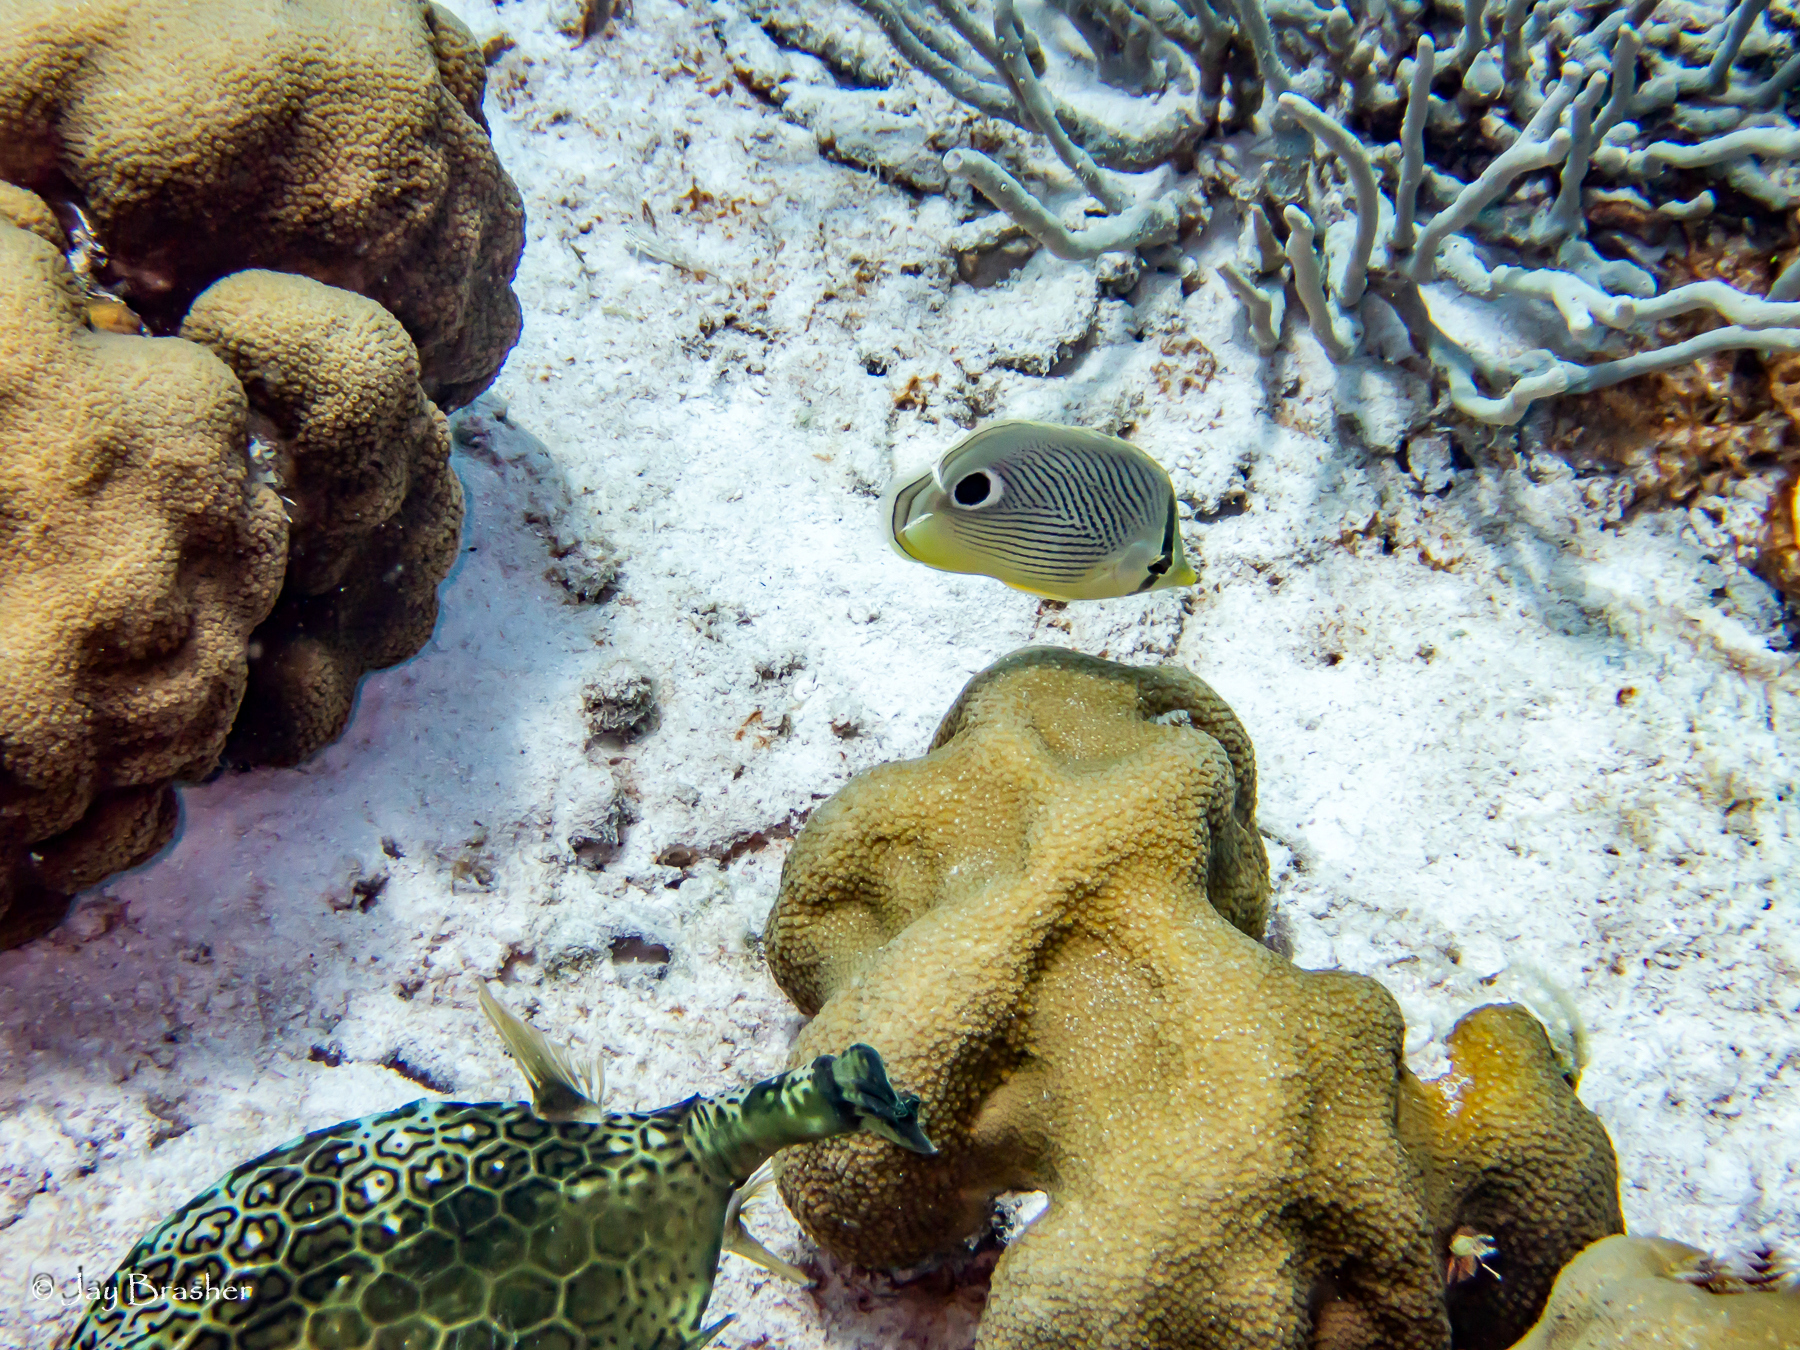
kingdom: Animalia
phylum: Porifera
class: Demospongiae
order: Verongiida
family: Aplysinidae
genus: Aplysina
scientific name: Aplysina cauliformis
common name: Branching candle sponge
